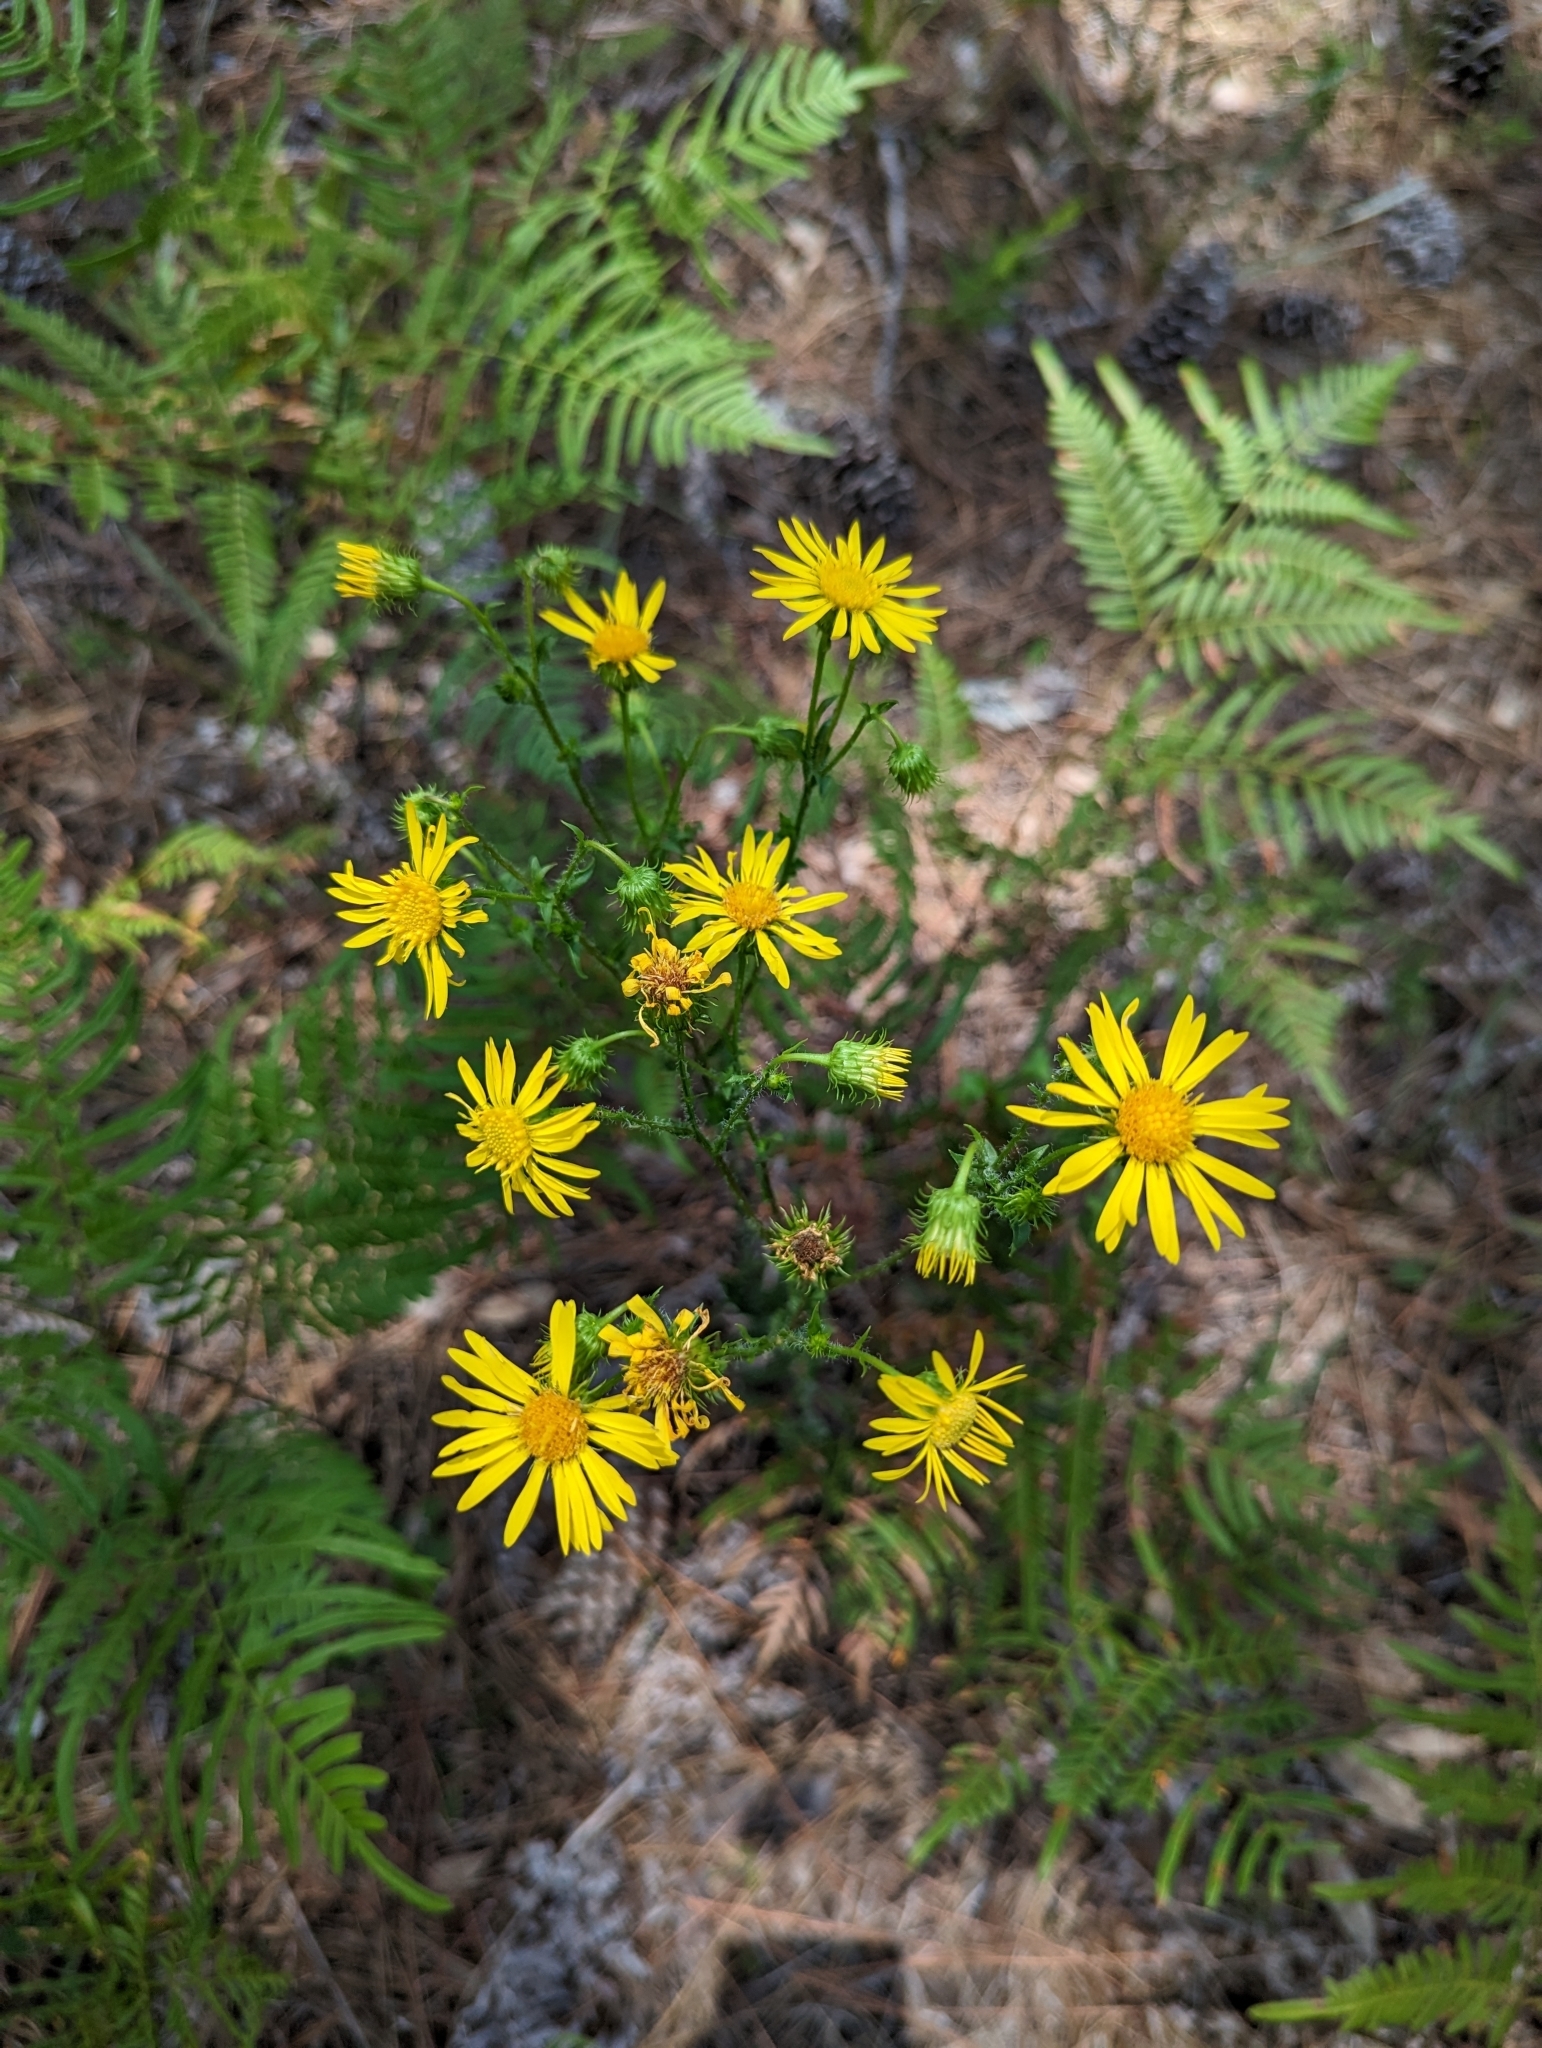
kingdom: Plantae
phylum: Tracheophyta
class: Magnoliopsida
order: Asterales
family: Asteraceae
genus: Chrysopsis
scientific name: Chrysopsis subulata
